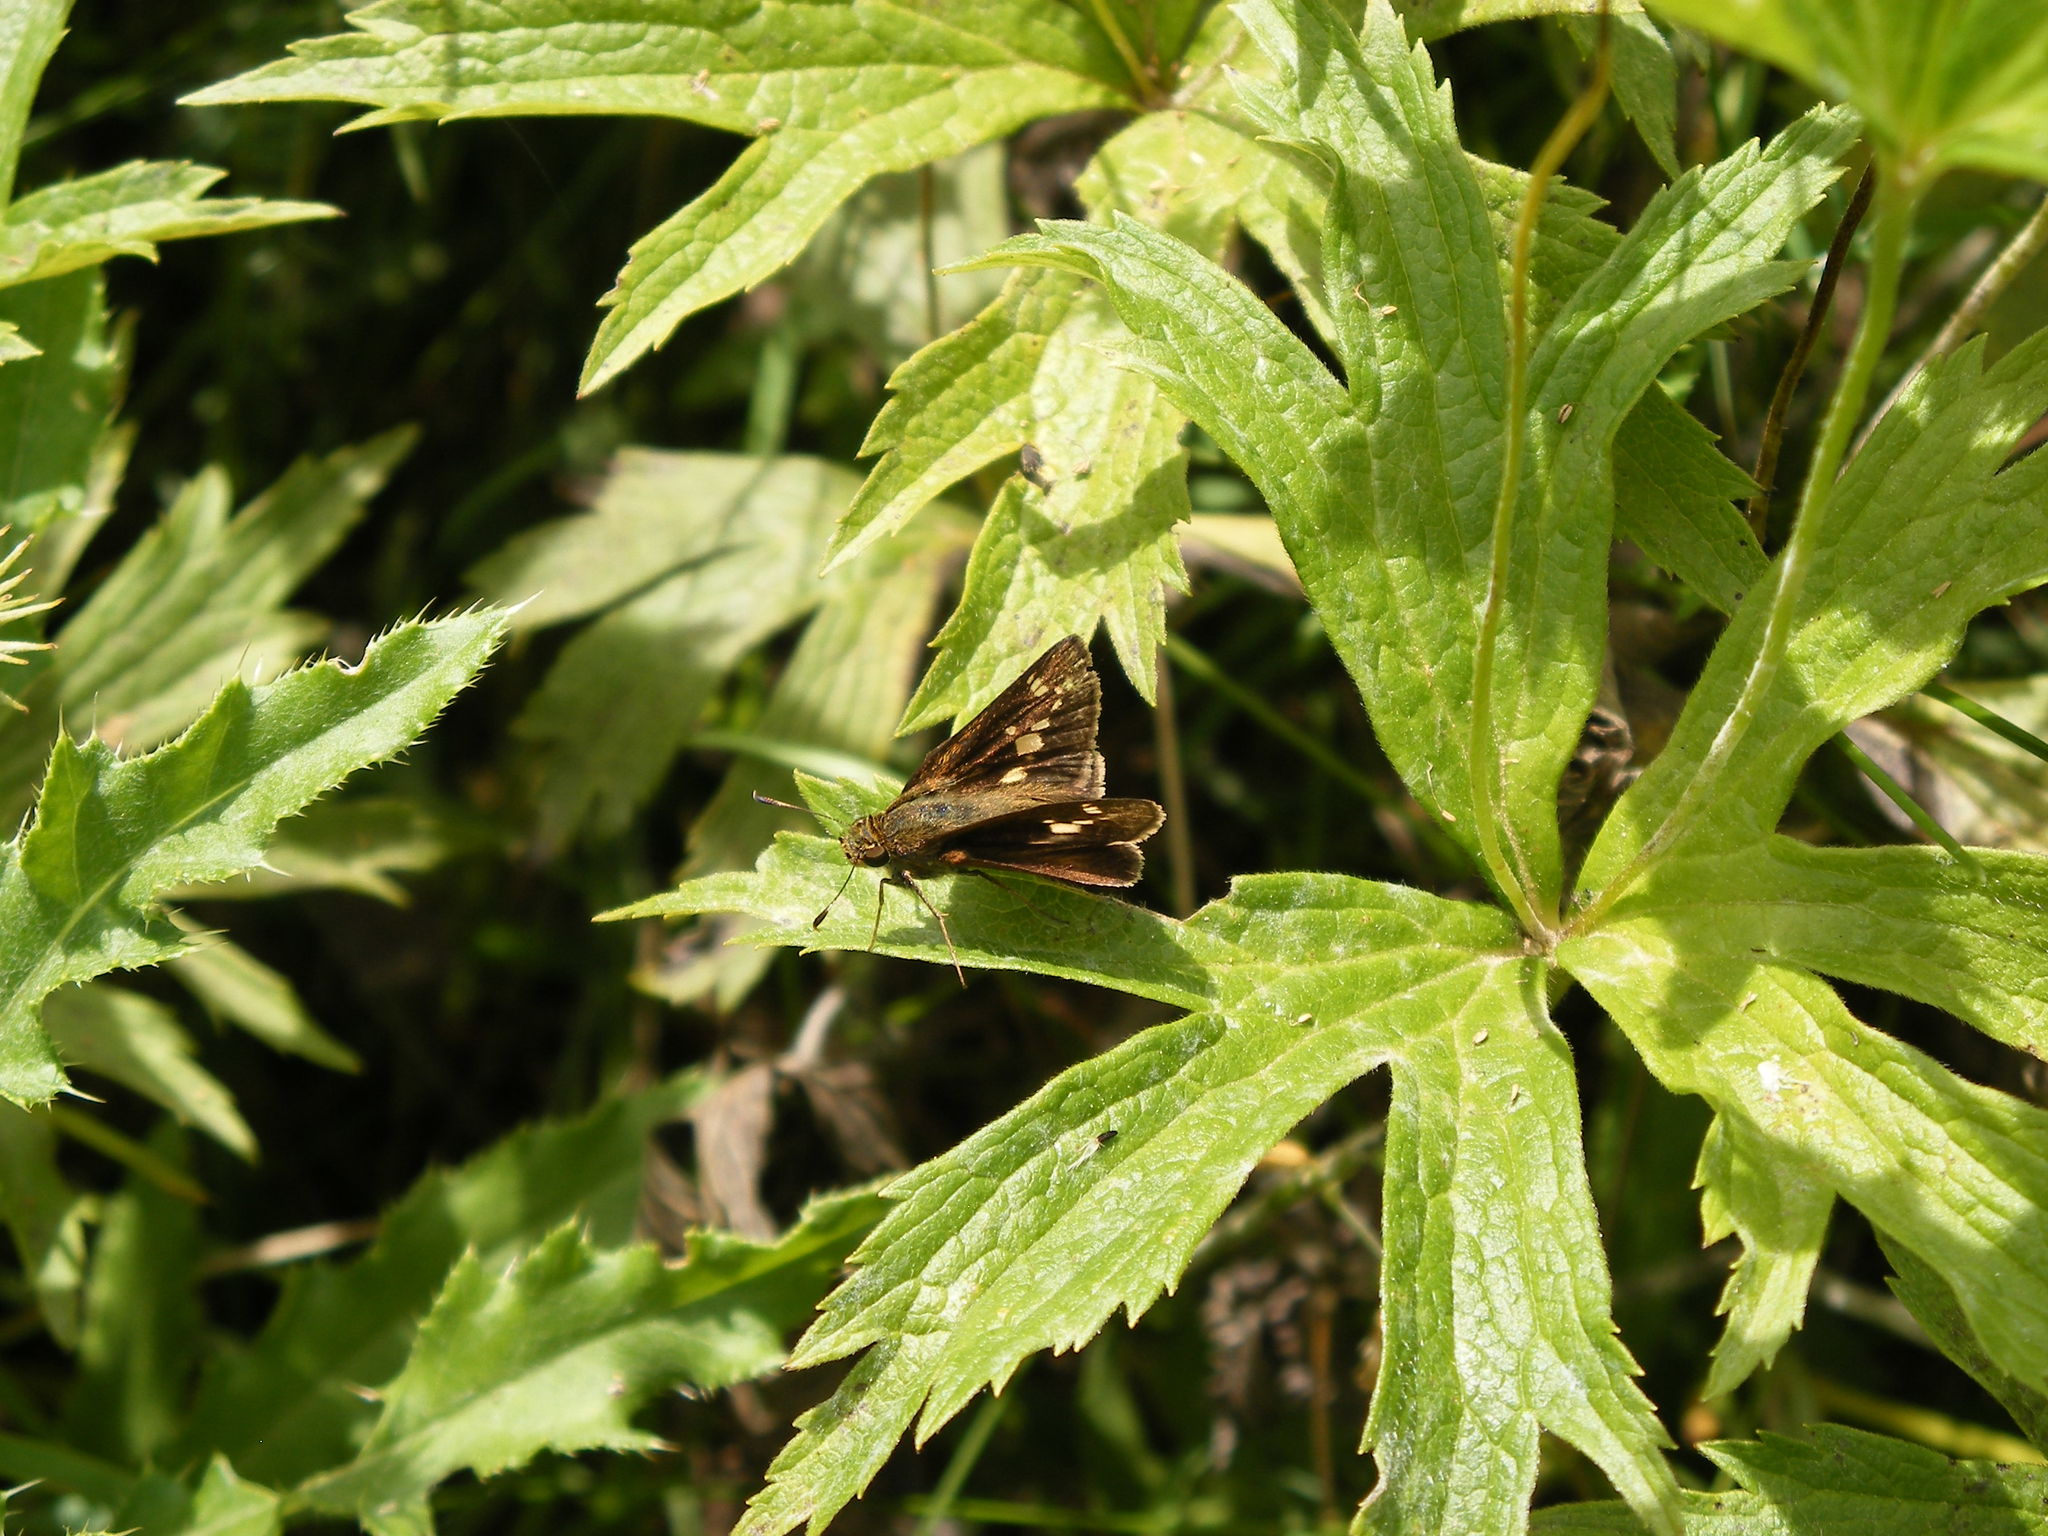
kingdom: Animalia
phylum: Arthropoda
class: Insecta
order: Lepidoptera
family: Hesperiidae
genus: Vernia
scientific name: Vernia verna
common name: Little glassywing
